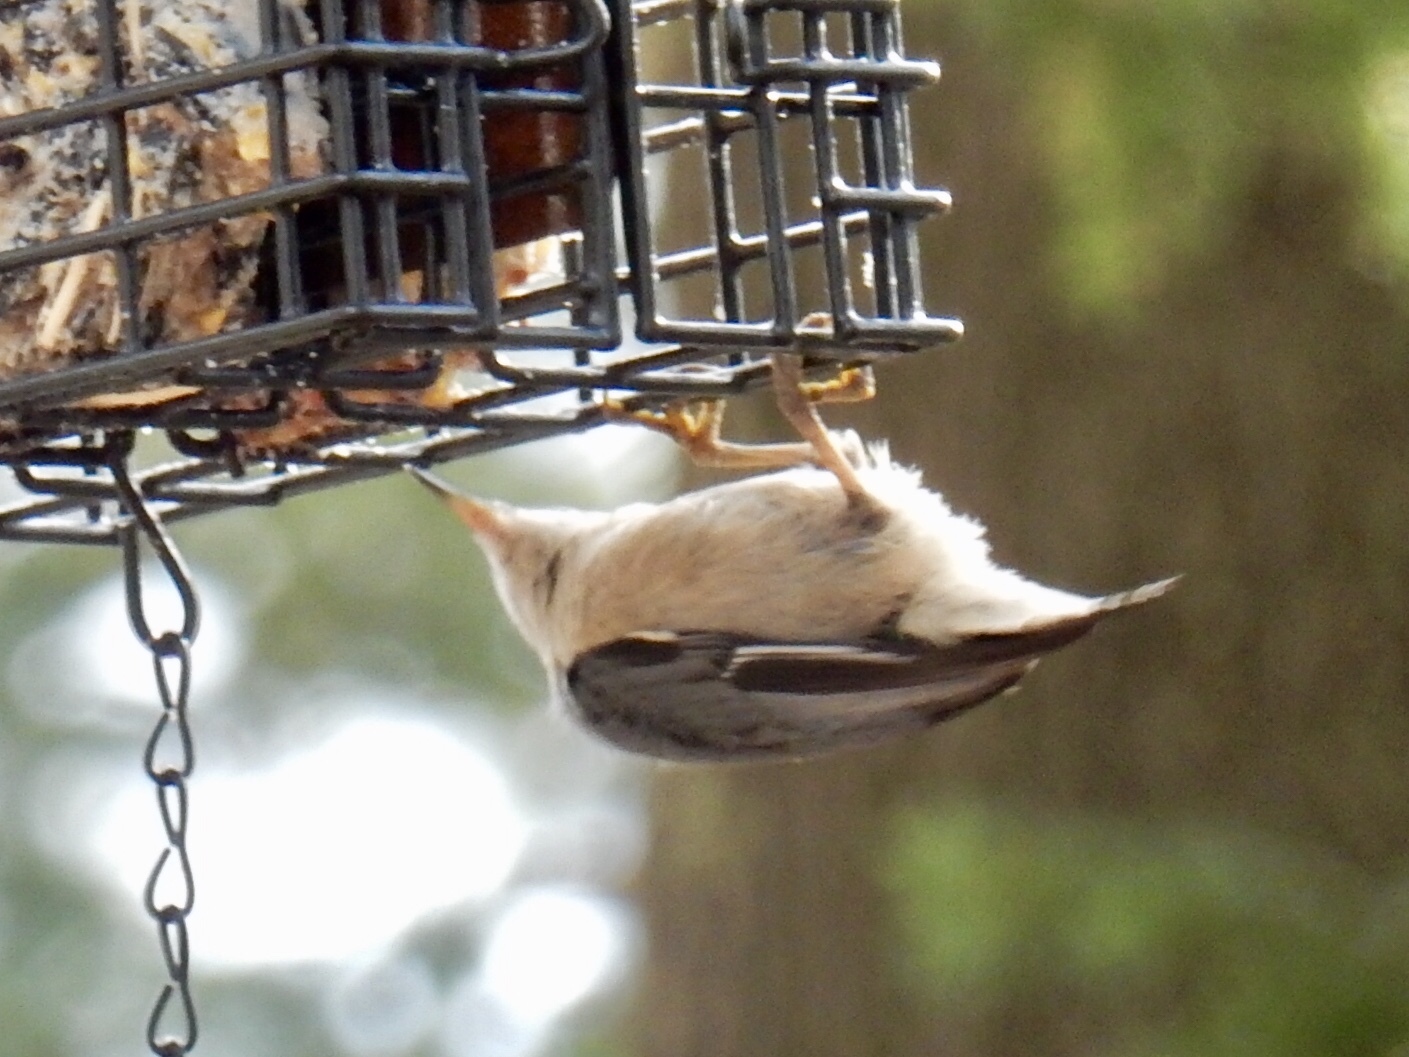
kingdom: Animalia
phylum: Chordata
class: Aves
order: Passeriformes
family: Sittidae
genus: Sitta
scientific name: Sitta pygmaea
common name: Pygmy nuthatch
